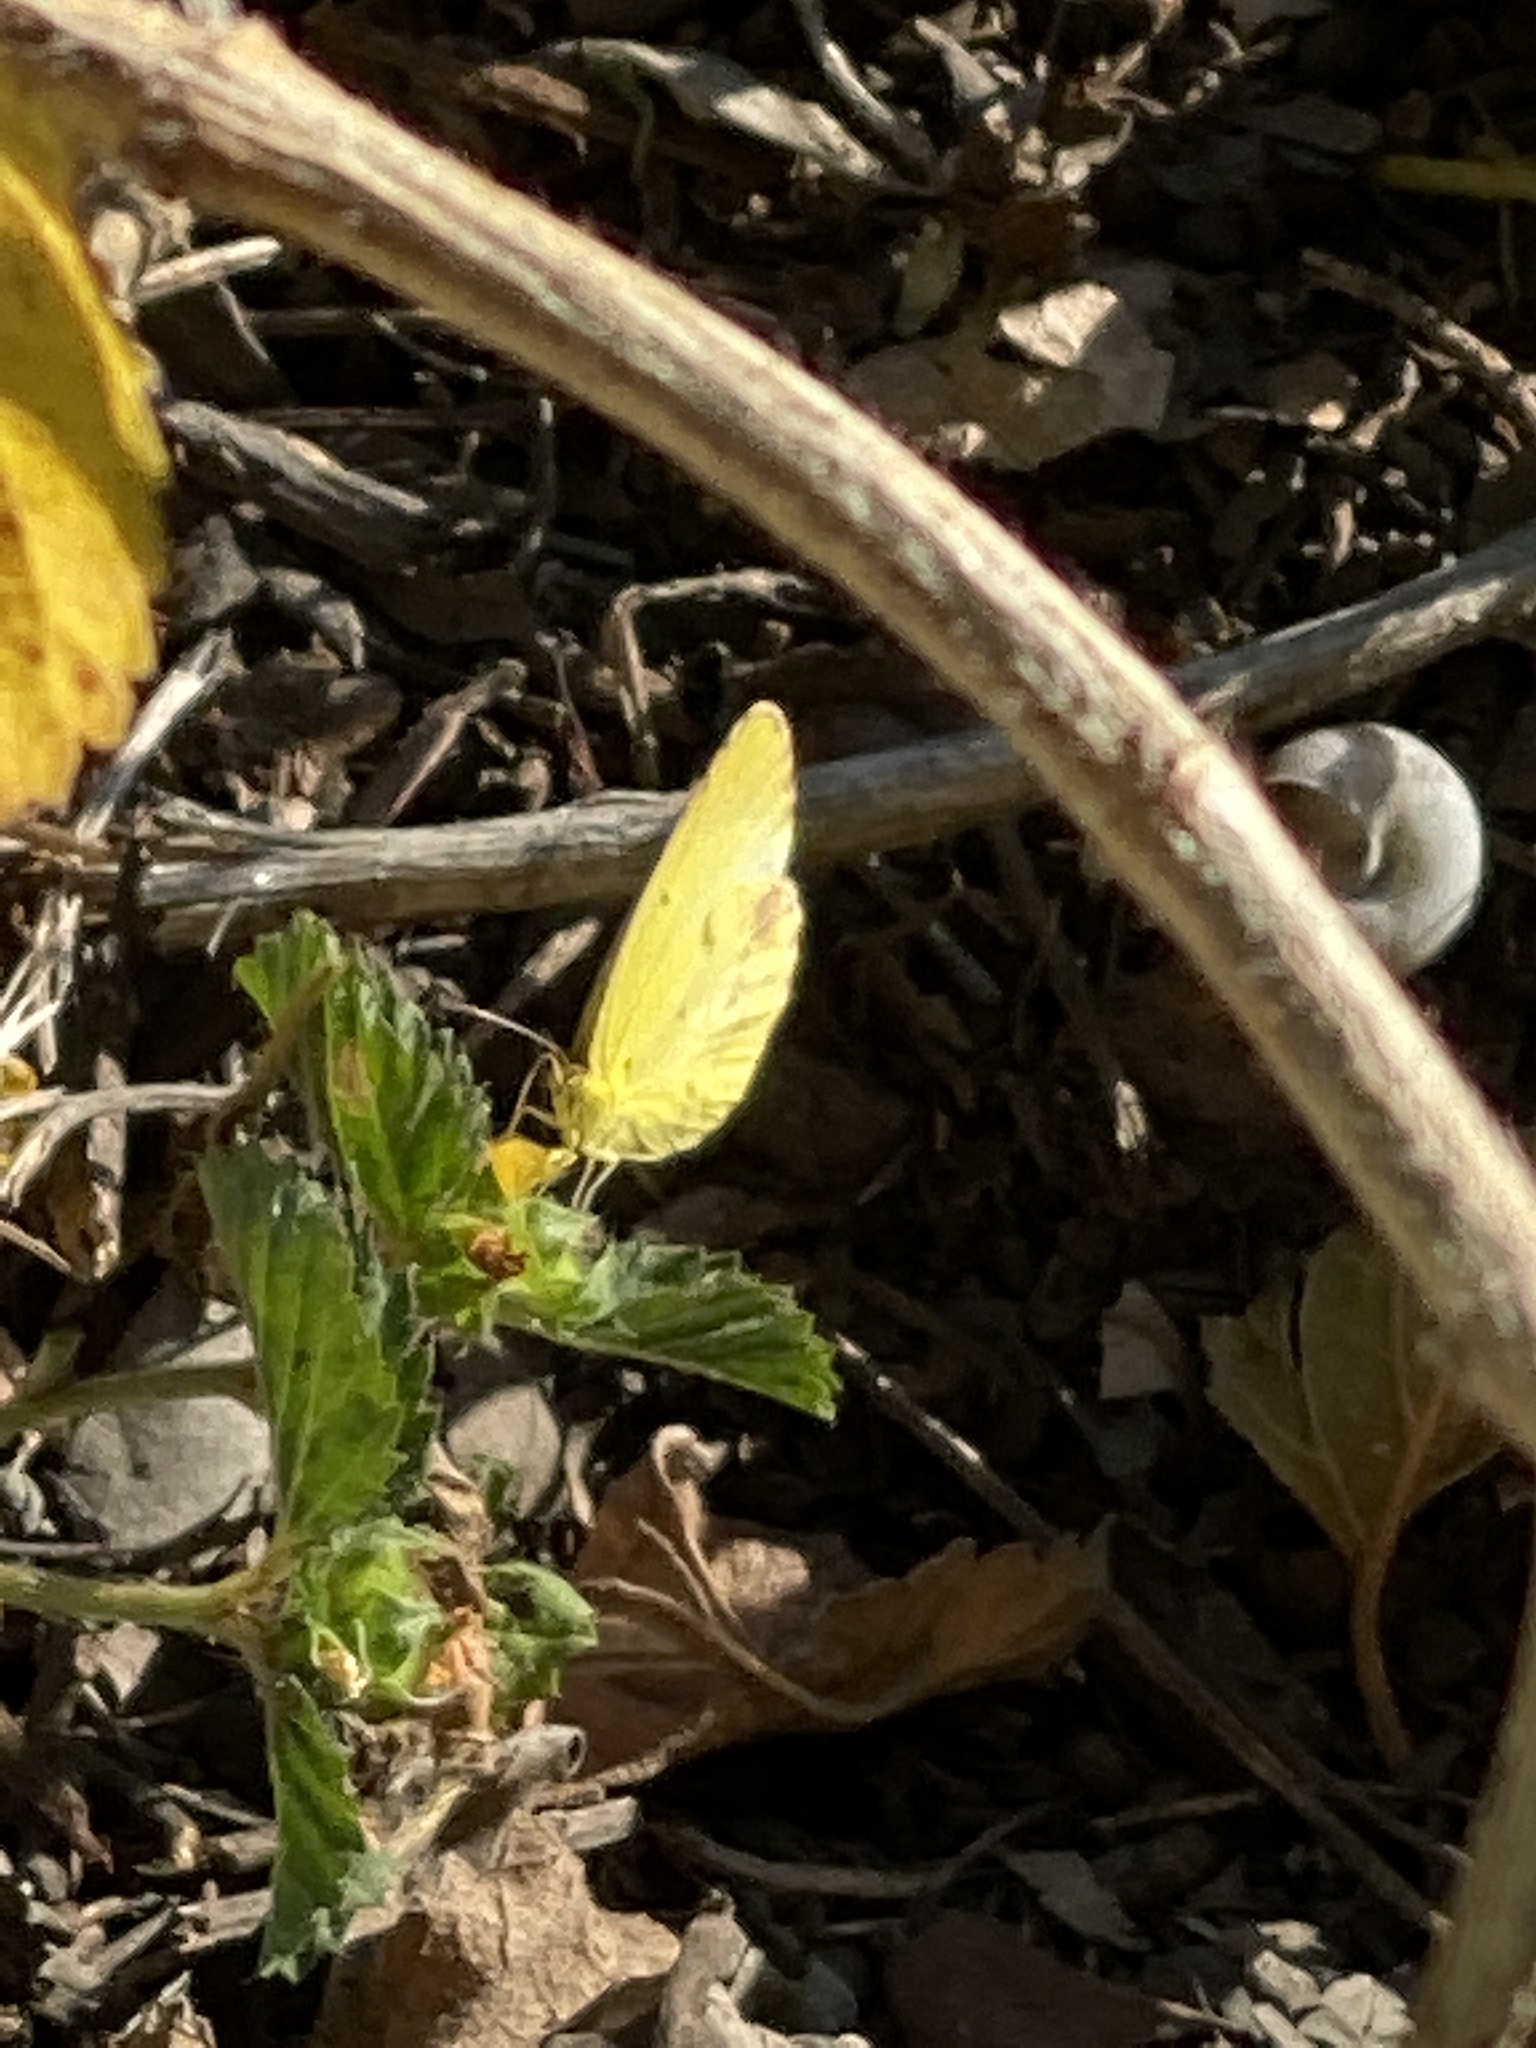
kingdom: Animalia
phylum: Arthropoda
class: Insecta
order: Lepidoptera
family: Pieridae
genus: Pyrisitia
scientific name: Pyrisitia lisa
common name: Little yellow
